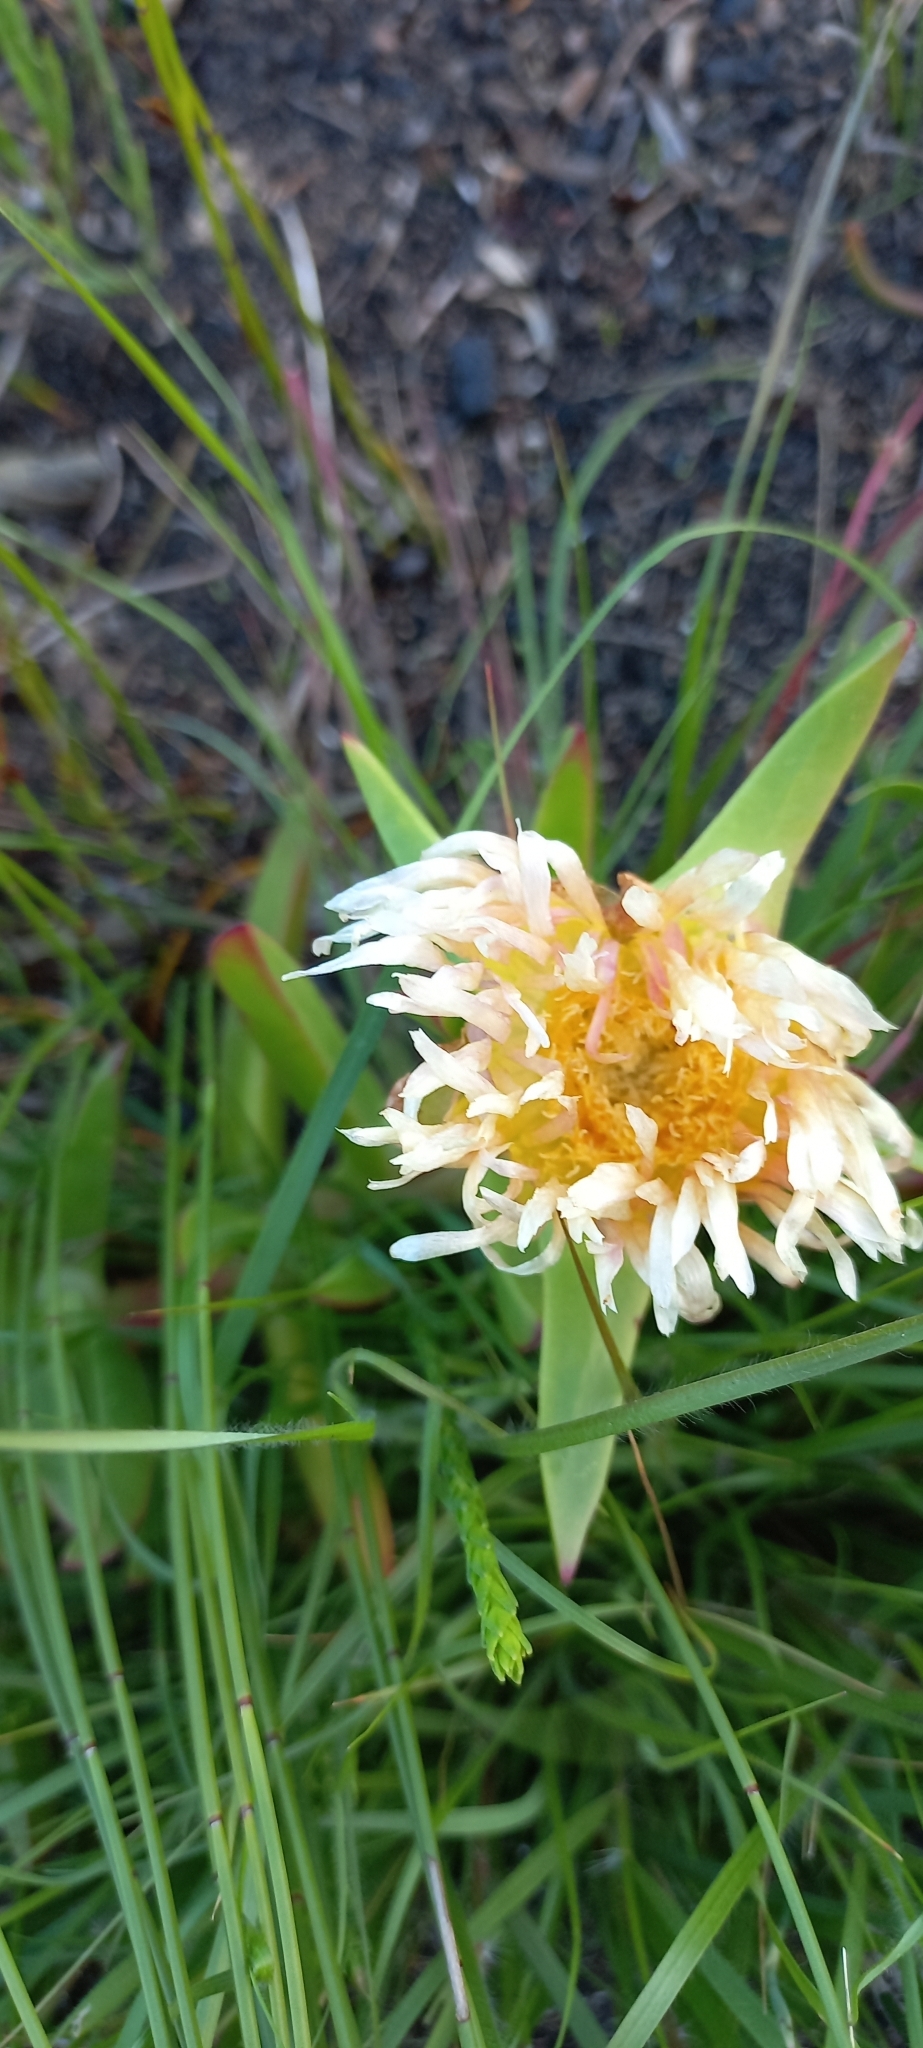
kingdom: Plantae
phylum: Tracheophyta
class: Magnoliopsida
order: Caryophyllales
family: Aizoaceae
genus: Carpobrotus
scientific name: Carpobrotus edulis
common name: Hottentot-fig
